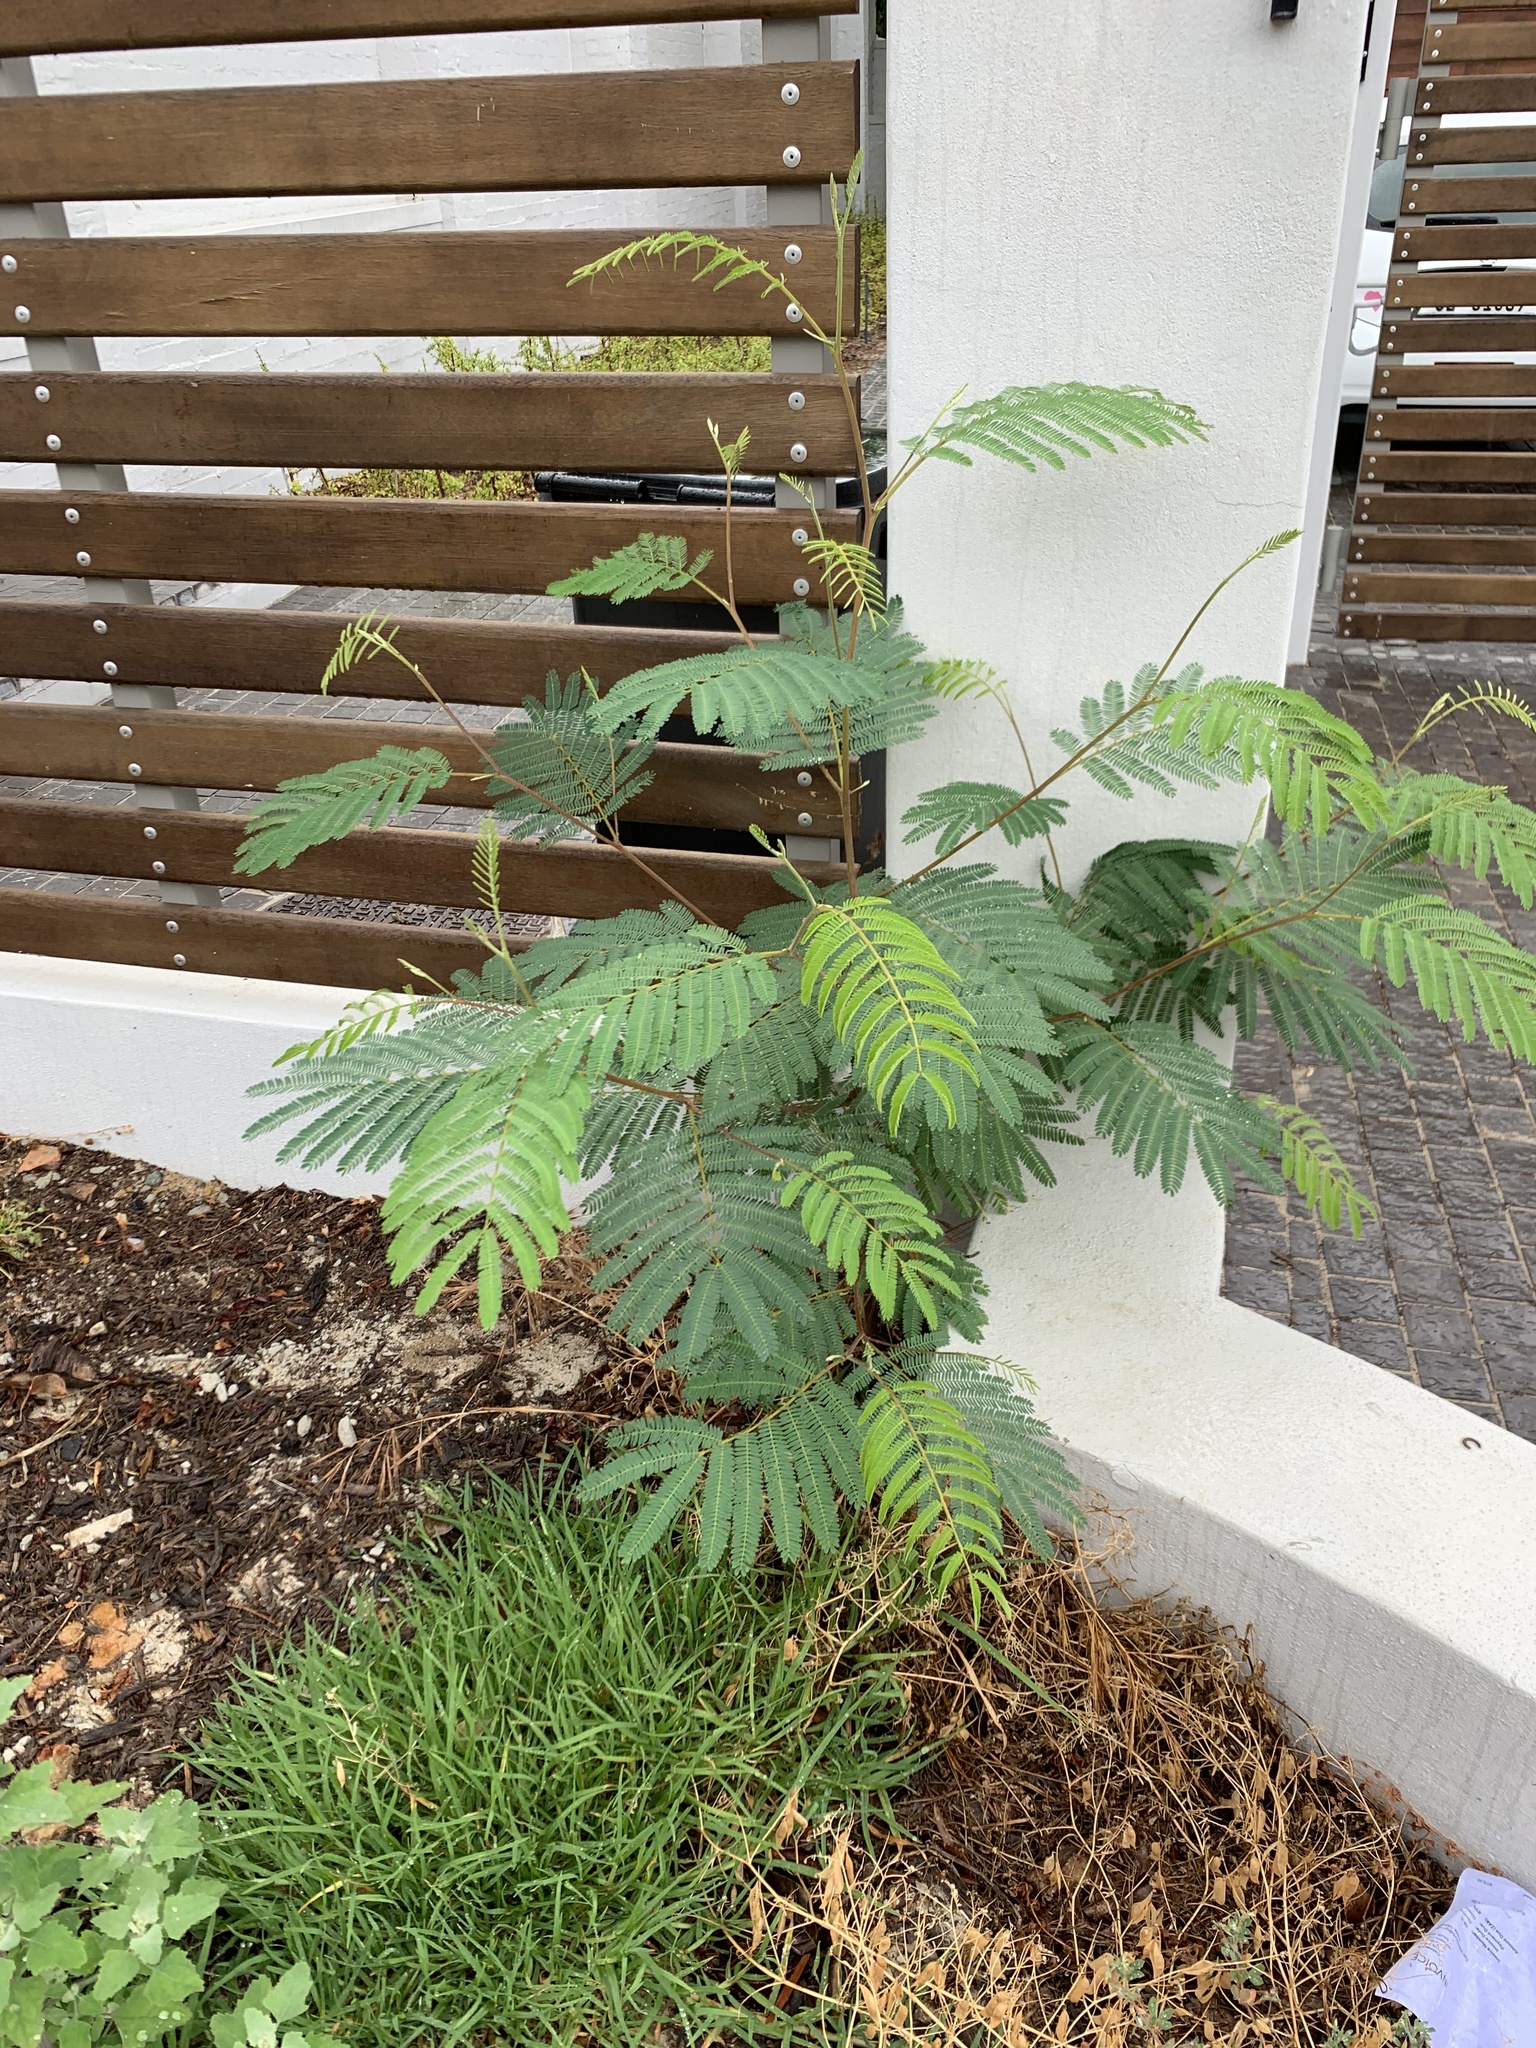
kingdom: Plantae
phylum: Tracheophyta
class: Magnoliopsida
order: Fabales
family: Fabaceae
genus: Paraserianthes
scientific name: Paraserianthes lophantha
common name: Plume albizia
